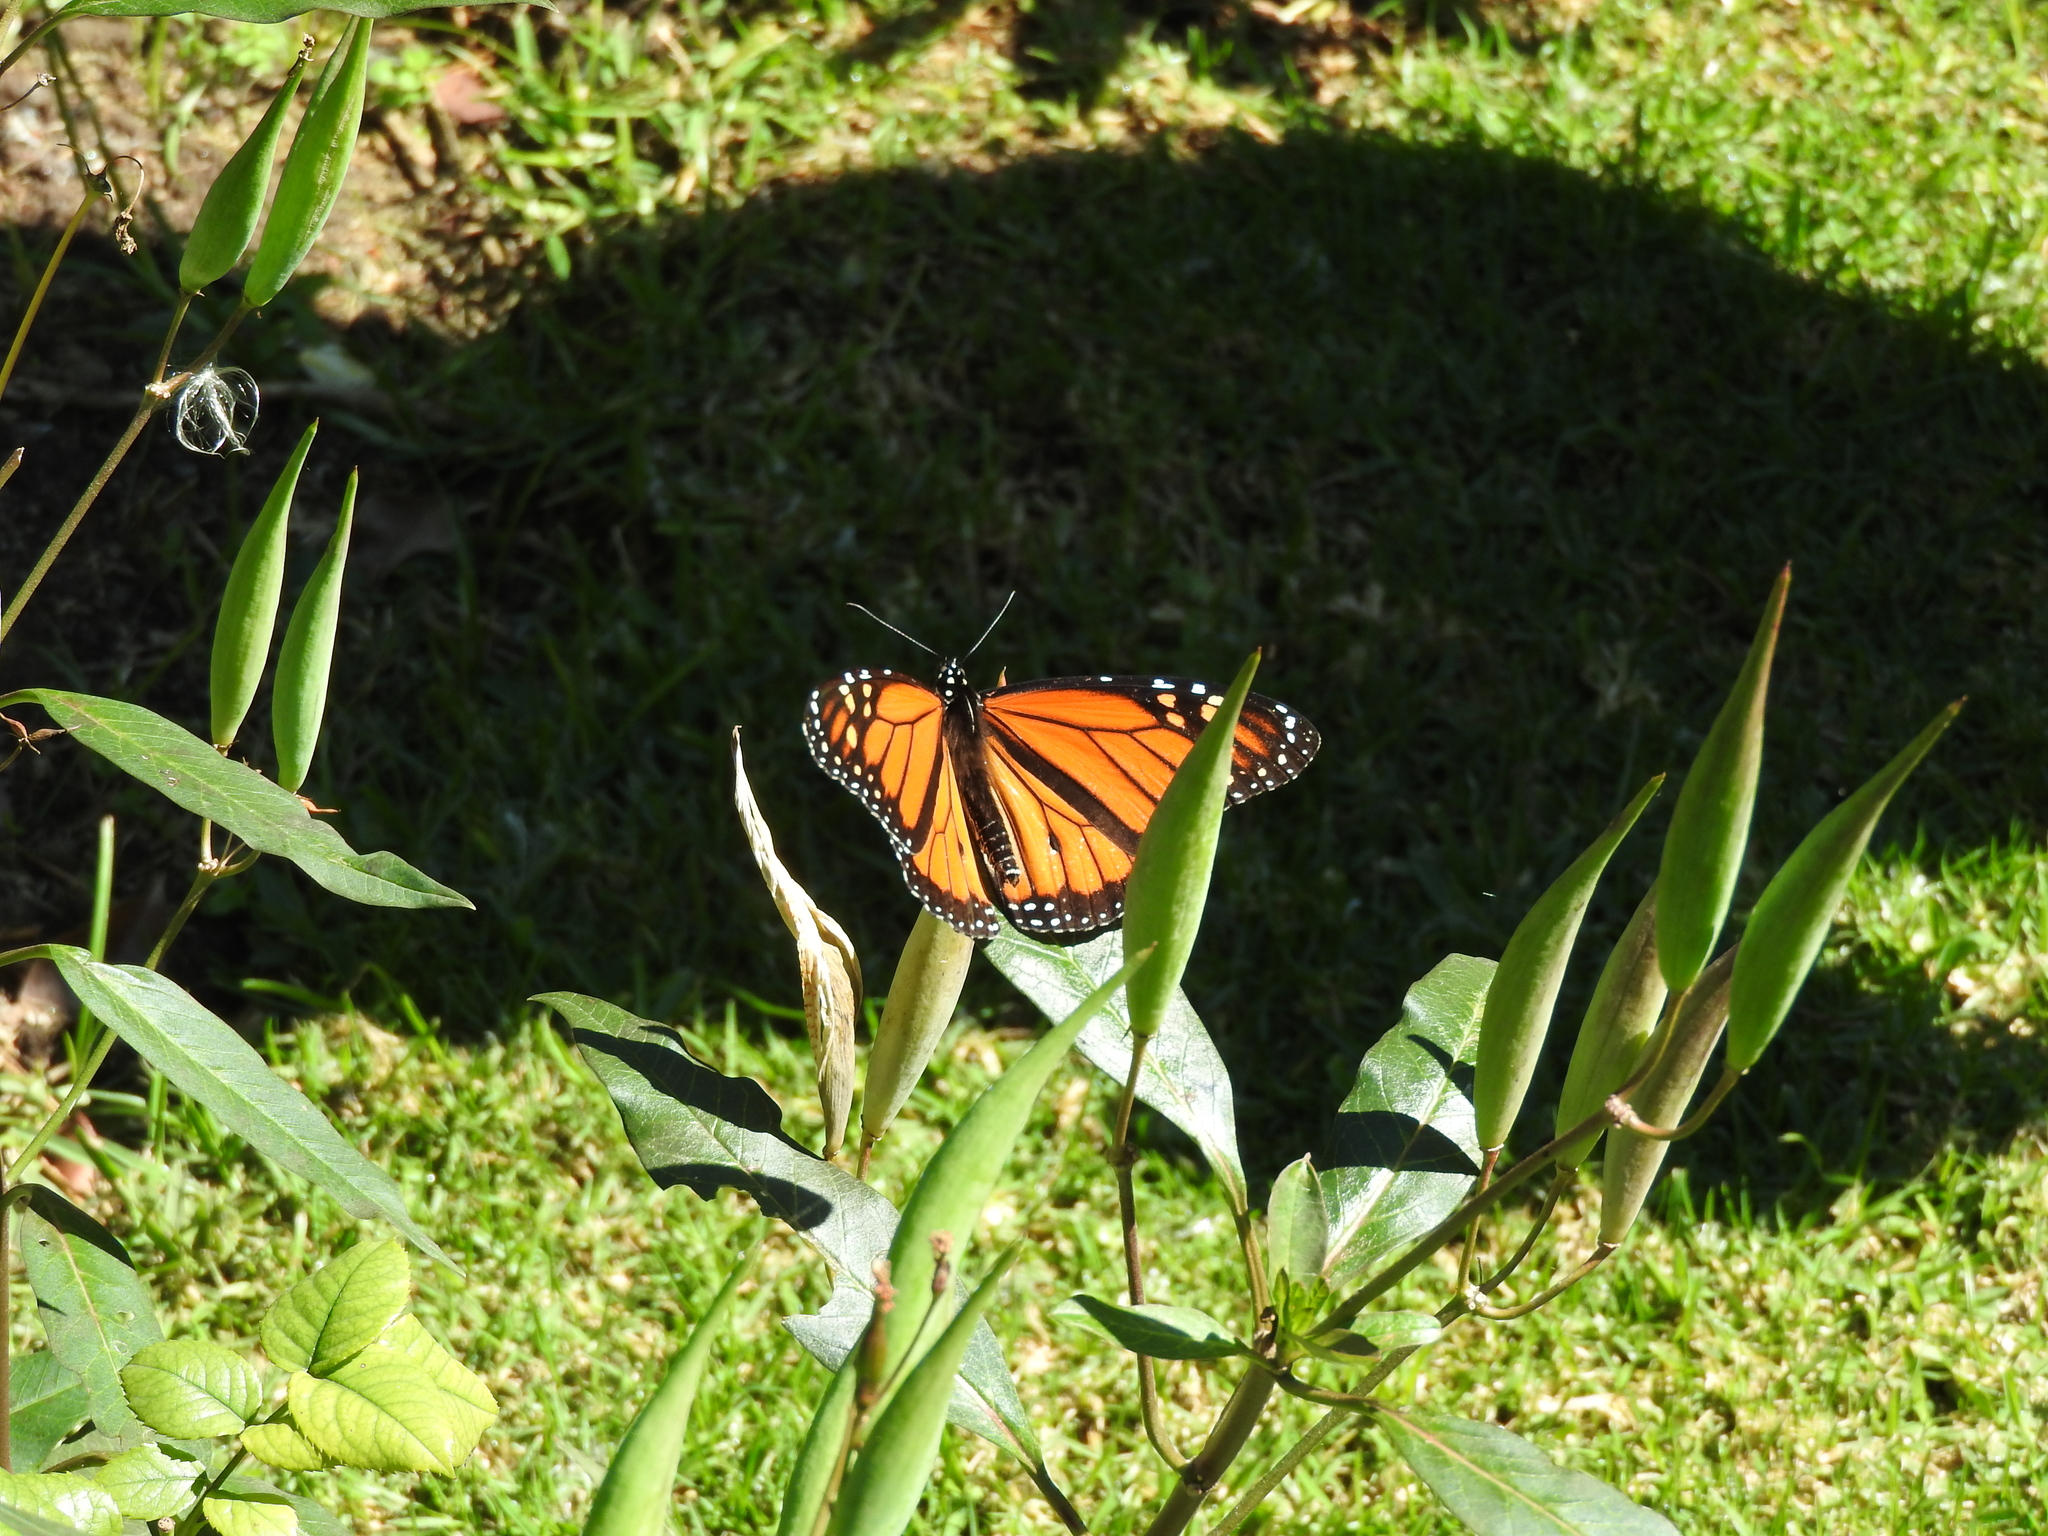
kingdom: Animalia
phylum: Arthropoda
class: Insecta
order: Lepidoptera
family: Nymphalidae
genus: Danaus
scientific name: Danaus plexippus
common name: Monarch
